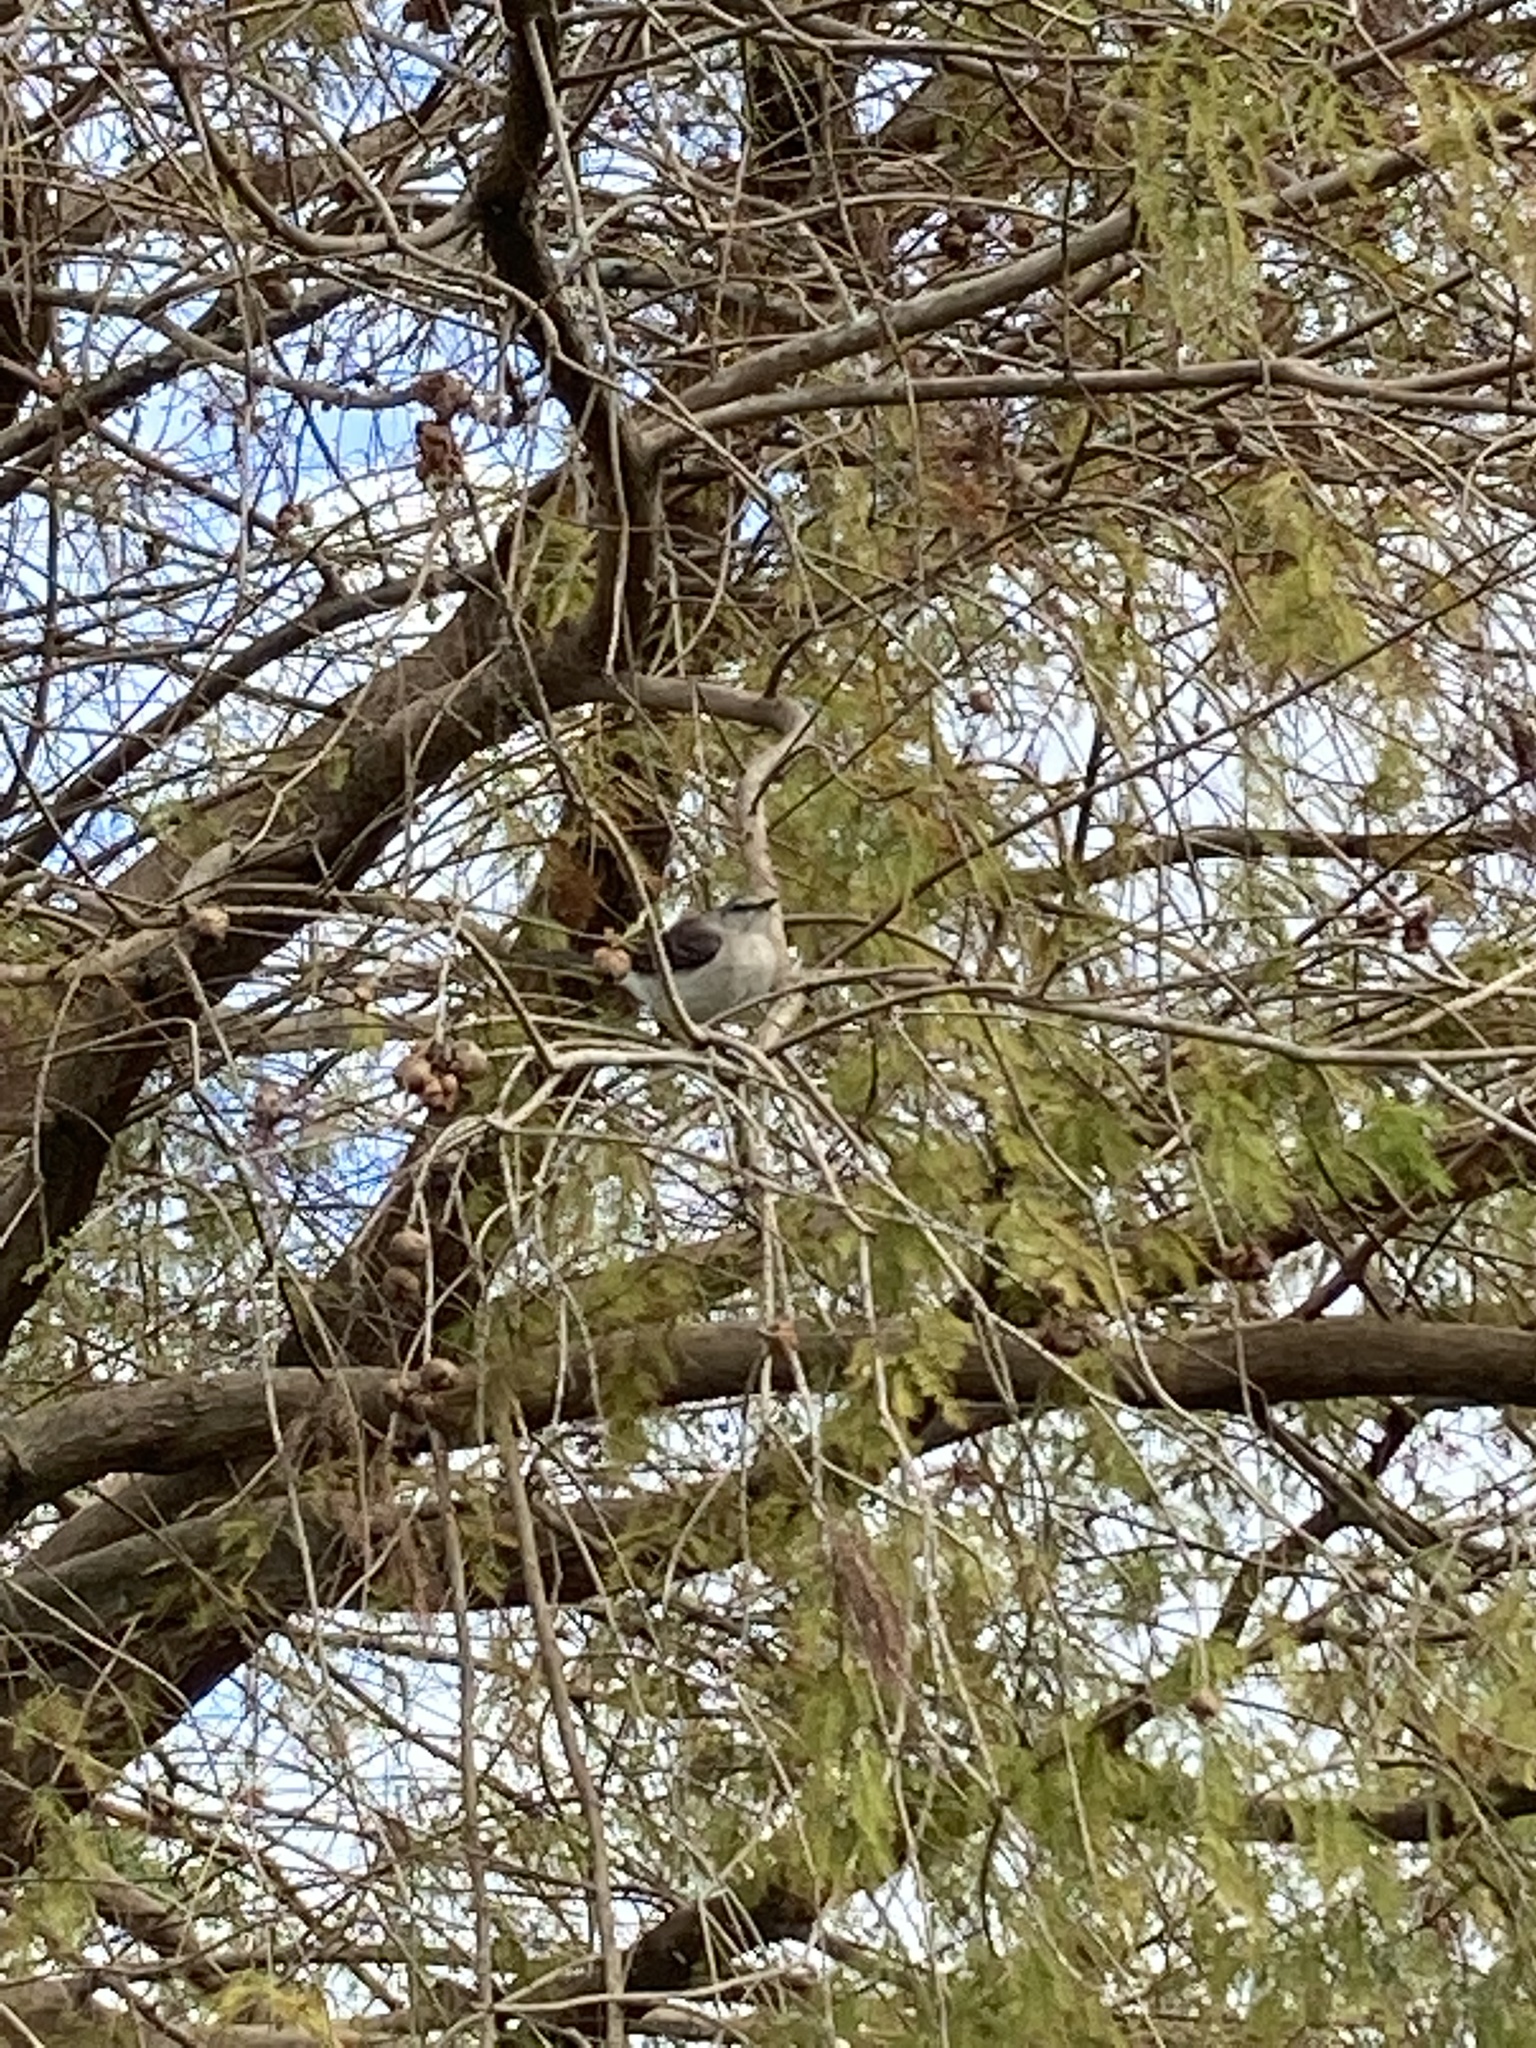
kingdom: Animalia
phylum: Chordata
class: Aves
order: Passeriformes
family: Mimidae
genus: Mimus
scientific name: Mimus polyglottos
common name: Northern mockingbird
